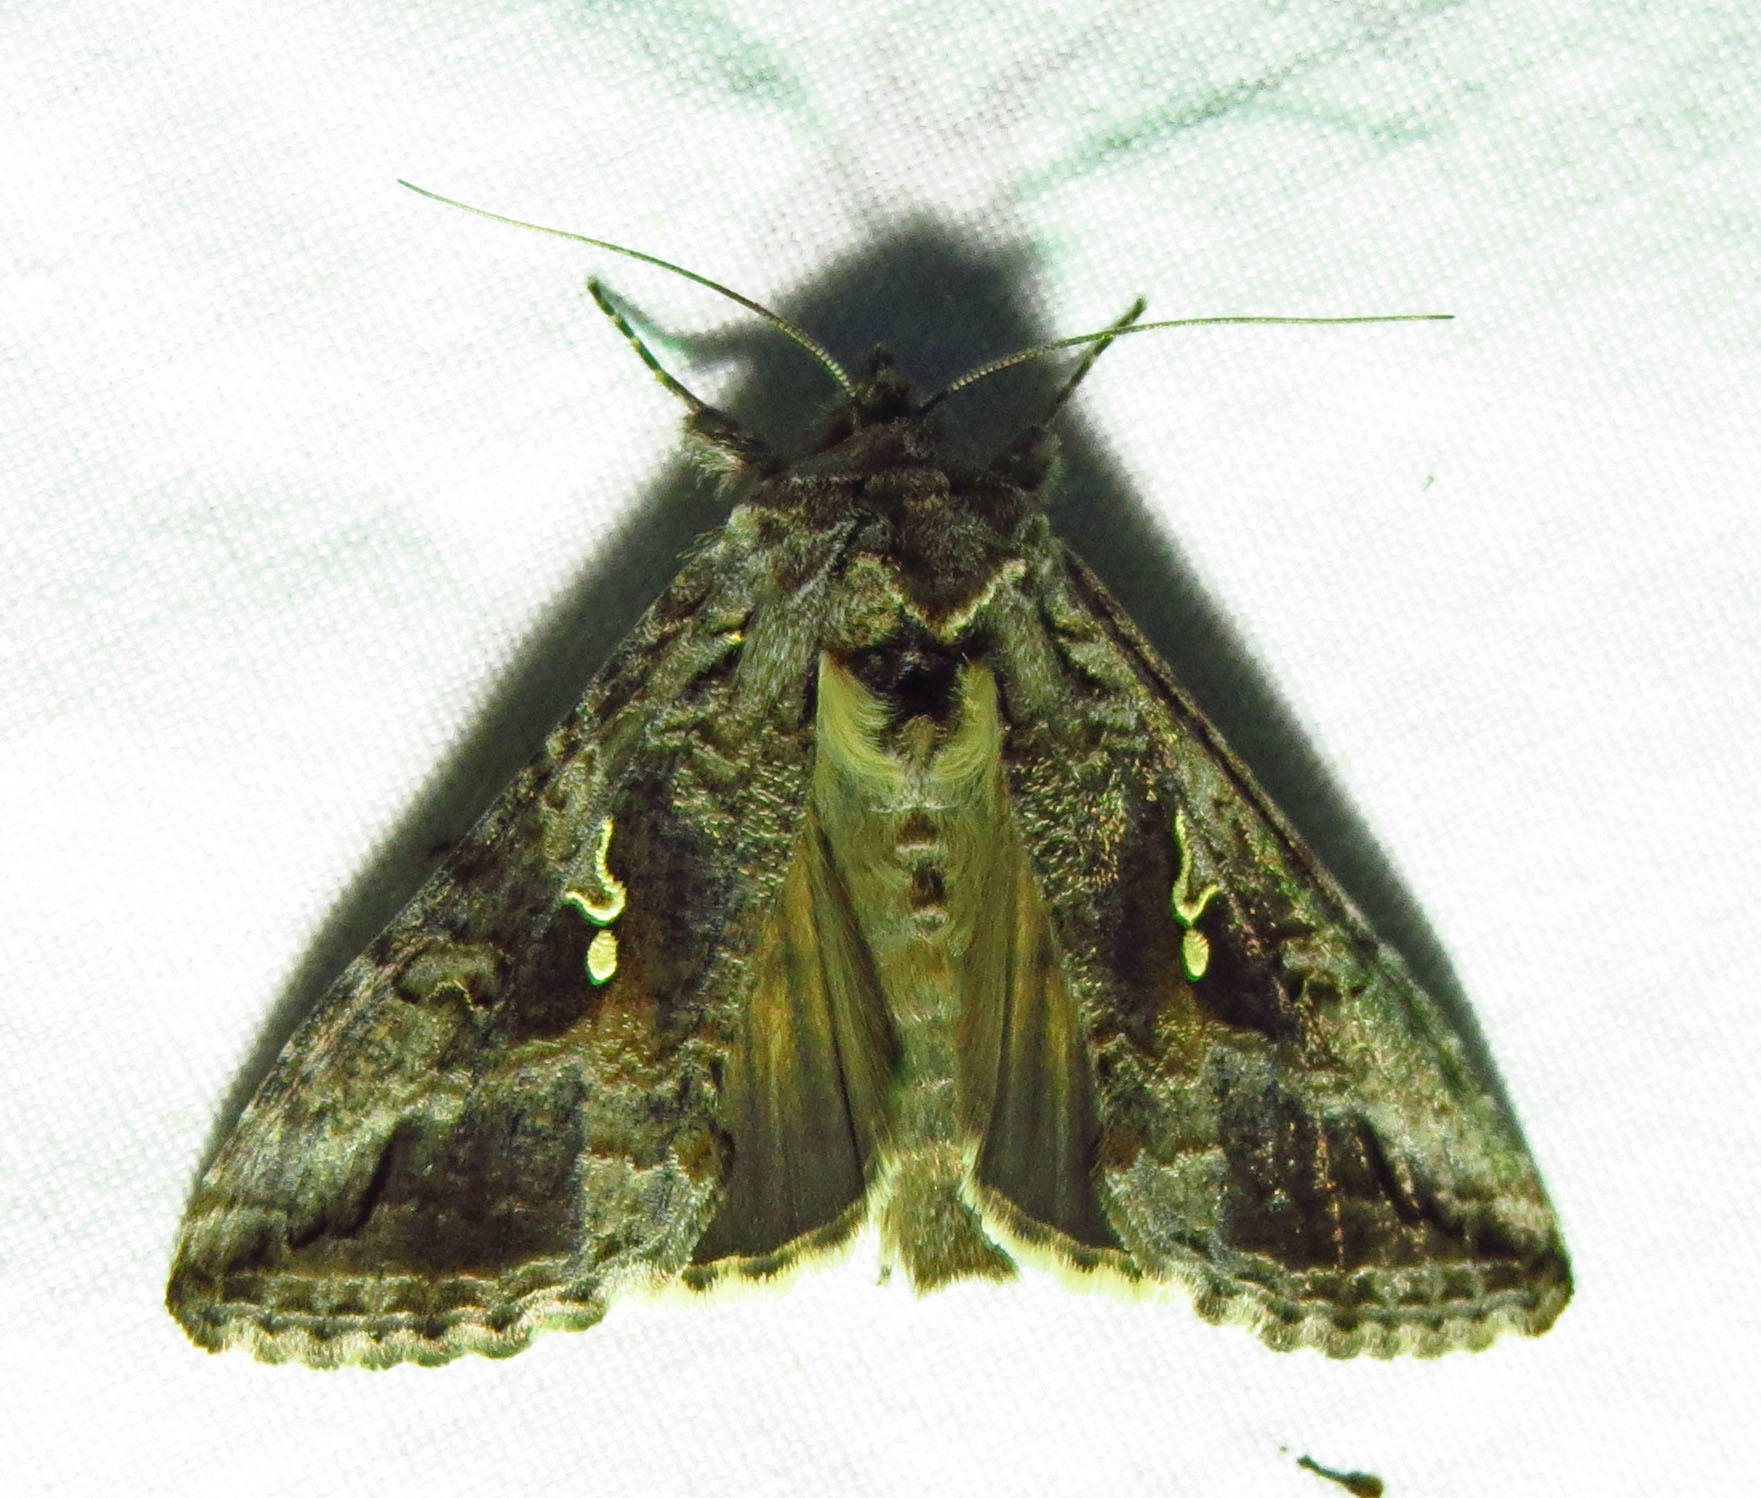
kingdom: Animalia
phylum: Arthropoda
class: Insecta
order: Lepidoptera
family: Noctuidae
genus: Rachiplusia
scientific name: Rachiplusia ou
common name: Gray looper moth
